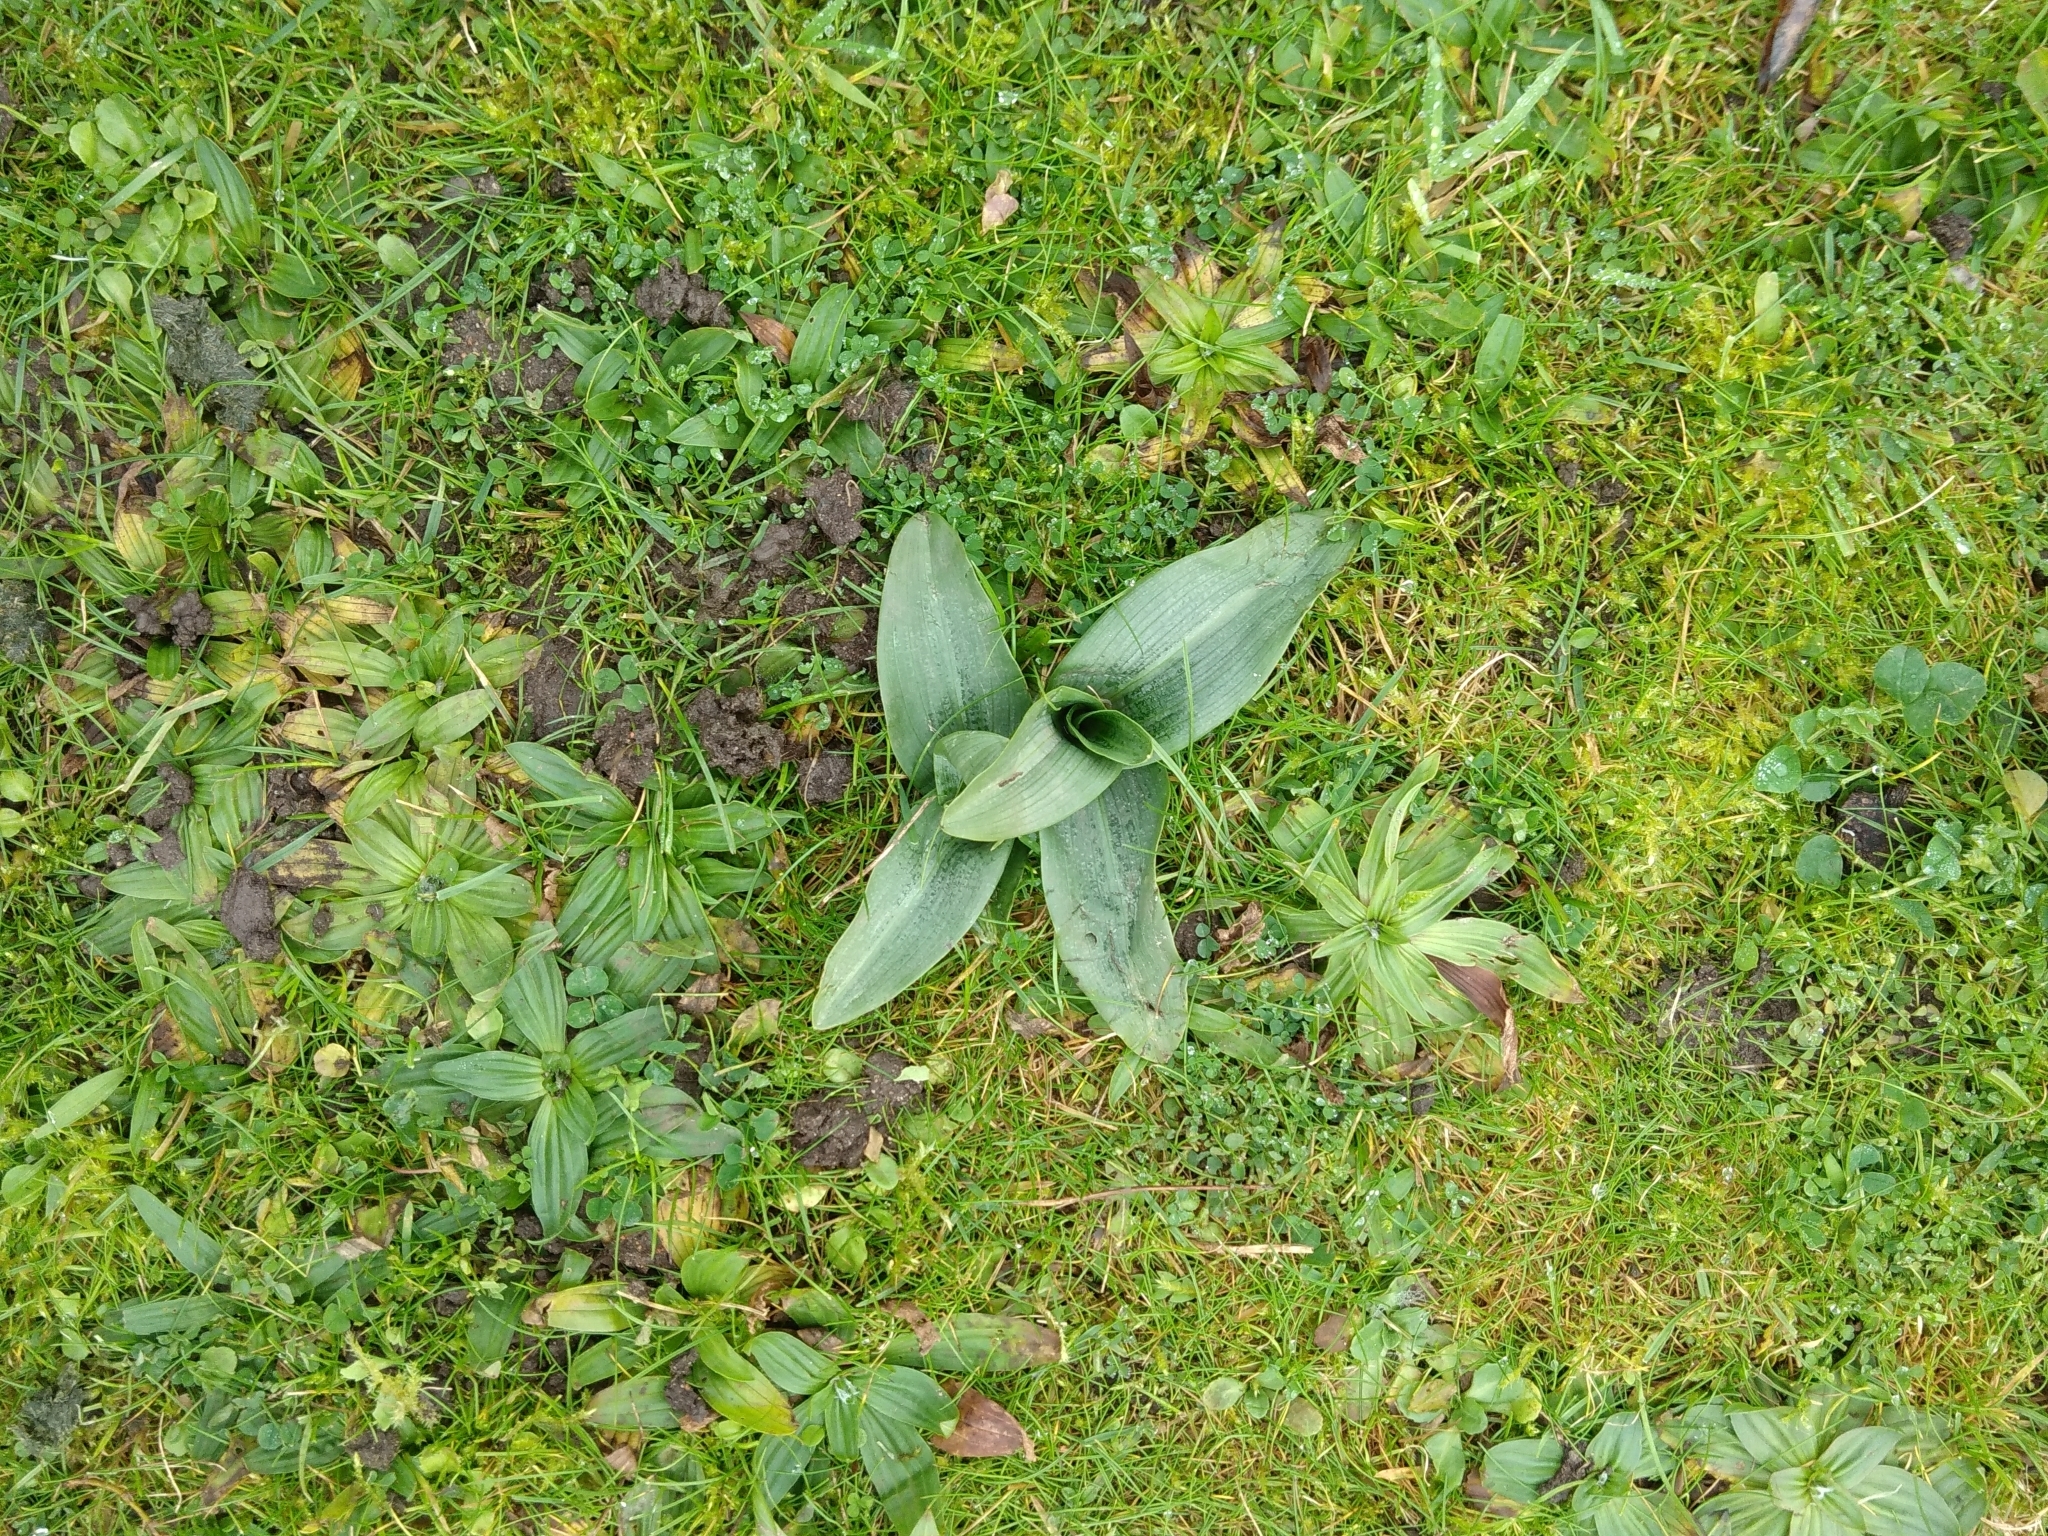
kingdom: Plantae
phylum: Tracheophyta
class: Liliopsida
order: Asparagales
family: Orchidaceae
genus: Ophrys
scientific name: Ophrys apifera
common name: Bee orchid
